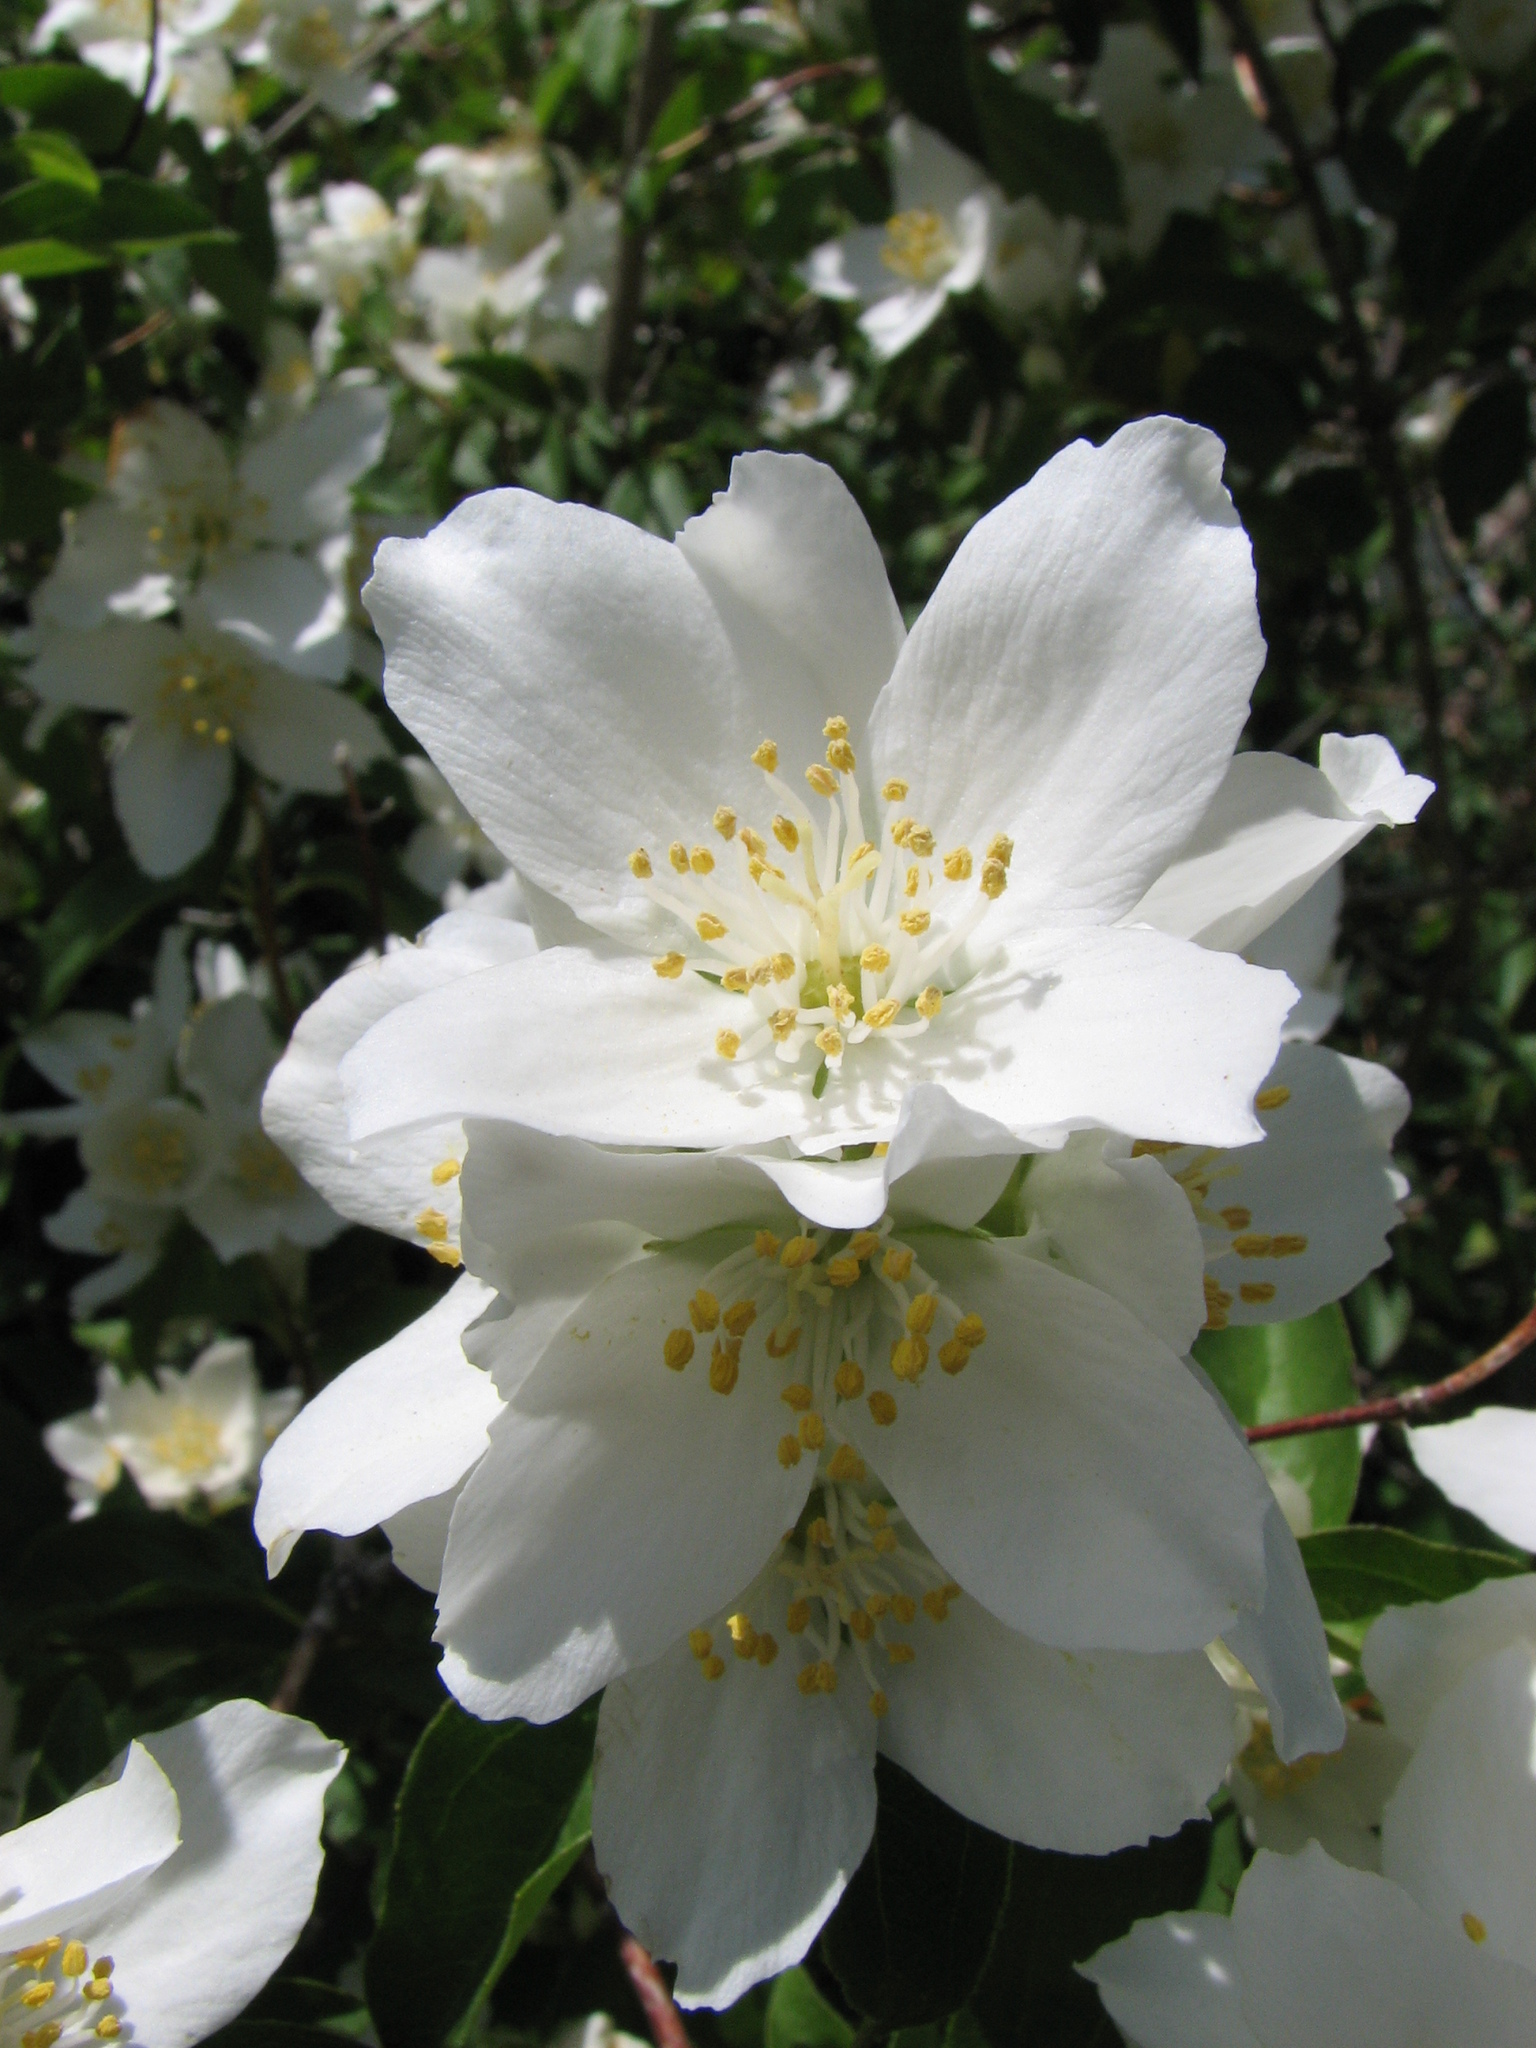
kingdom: Plantae
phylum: Tracheophyta
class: Magnoliopsida
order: Cornales
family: Hydrangeaceae
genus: Philadelphus
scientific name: Philadelphus lewisii
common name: Lewis's mock orange
